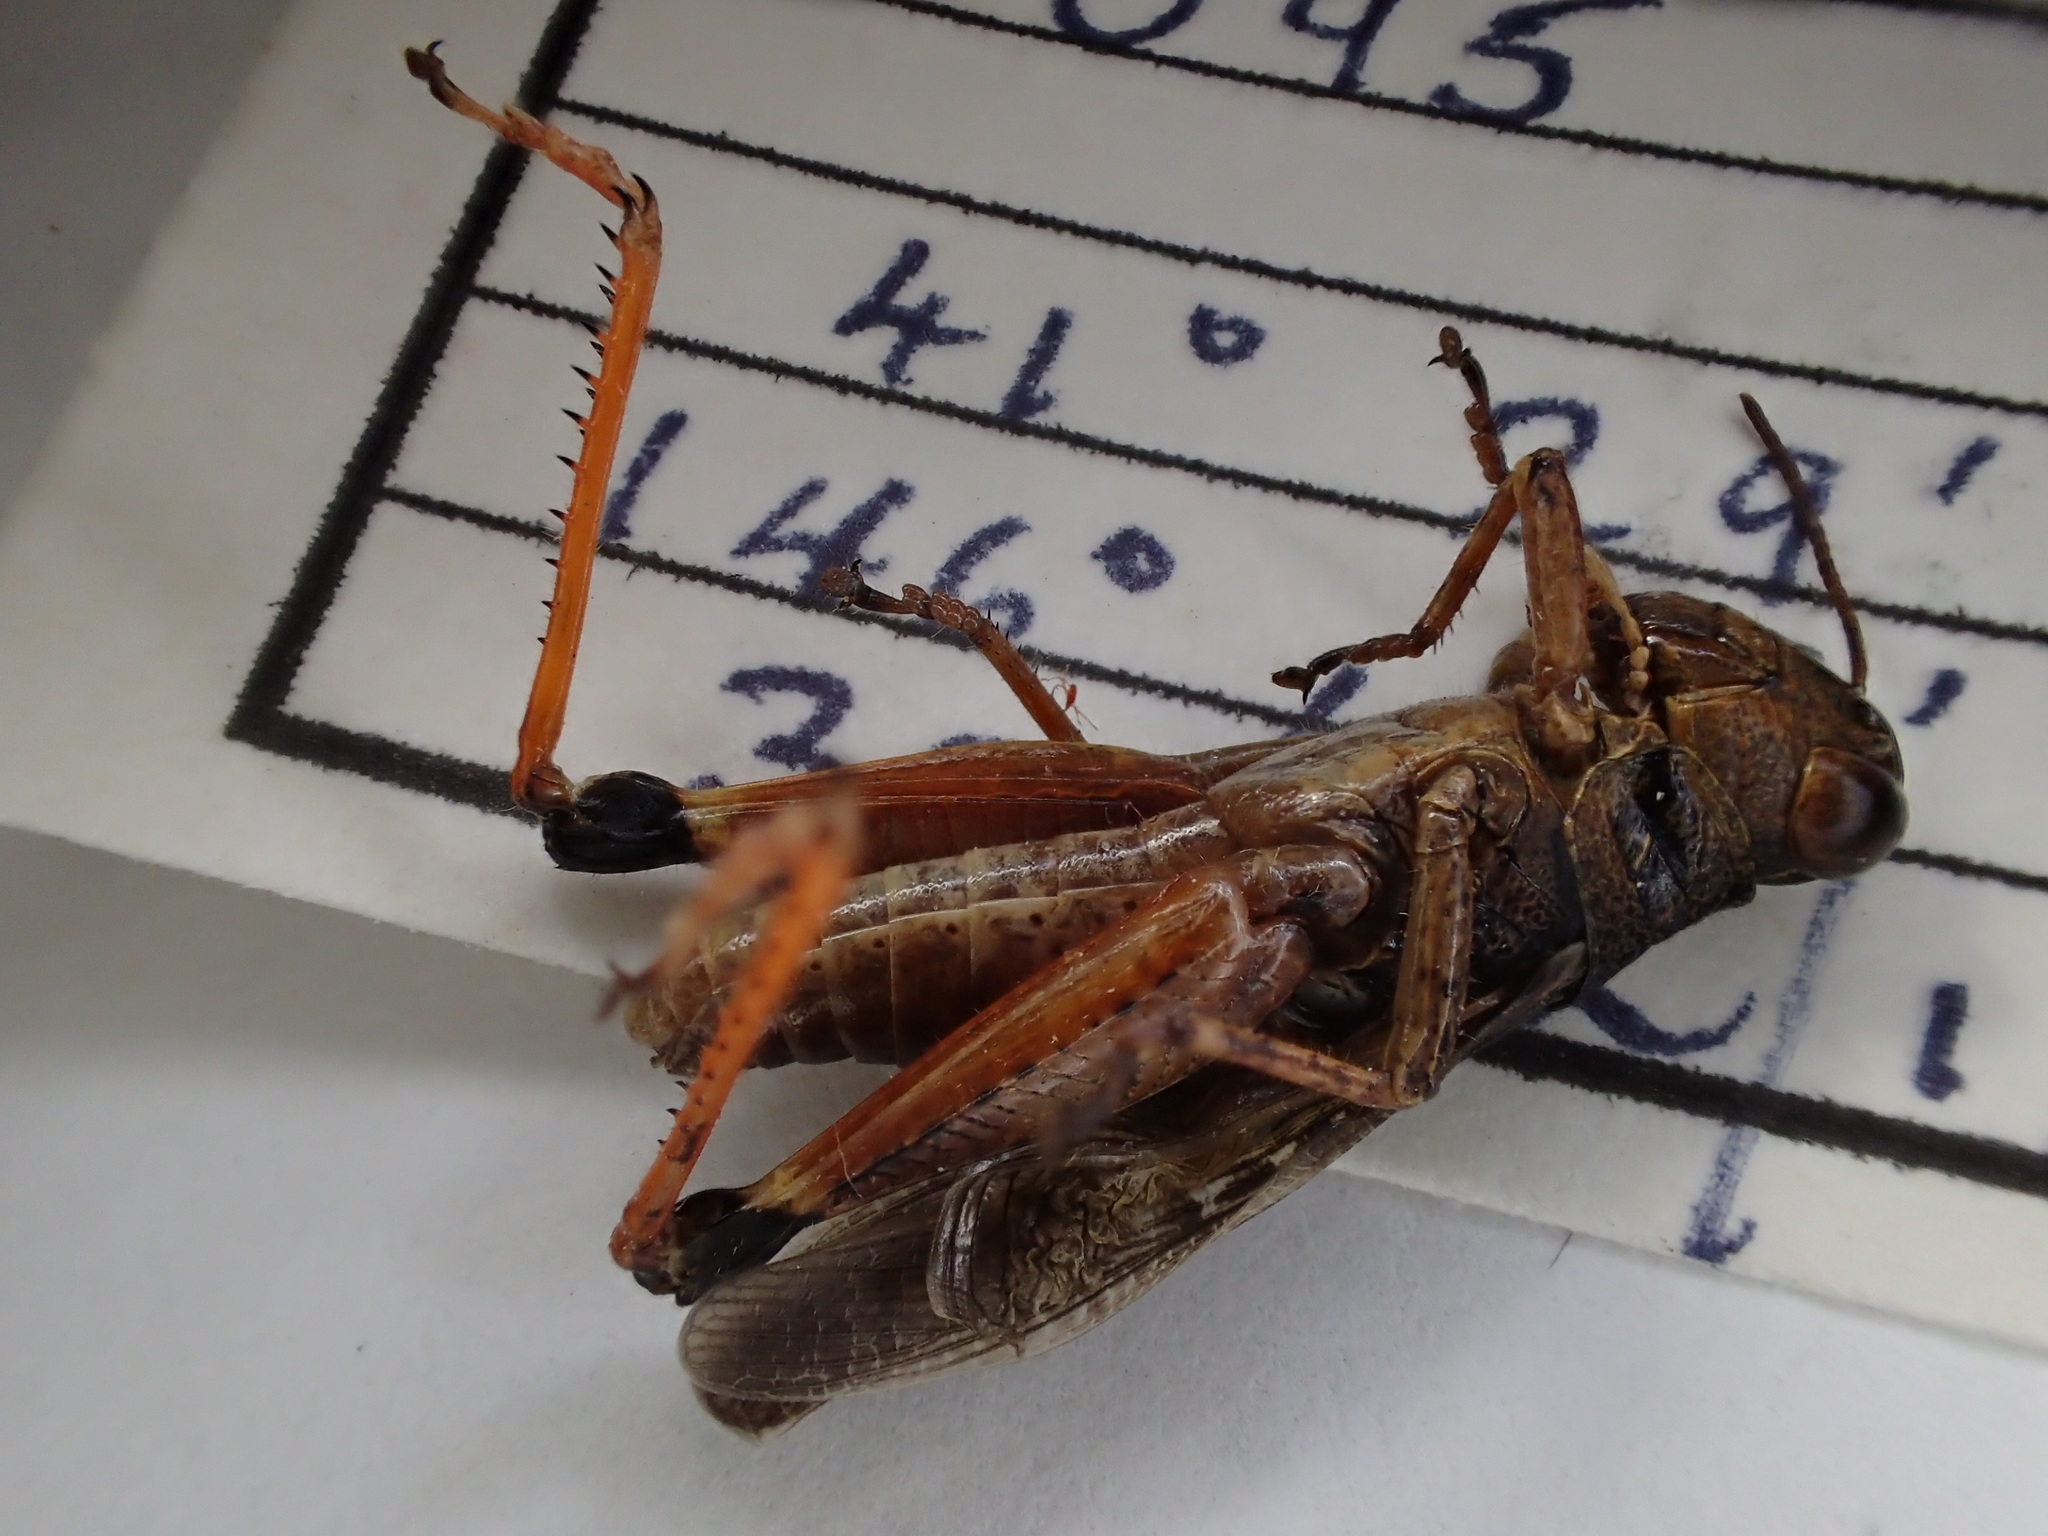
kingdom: Animalia
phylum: Arthropoda
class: Insecta
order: Orthoptera
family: Acrididae
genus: Exarna
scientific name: Exarna includens
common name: Red-legged exarna
